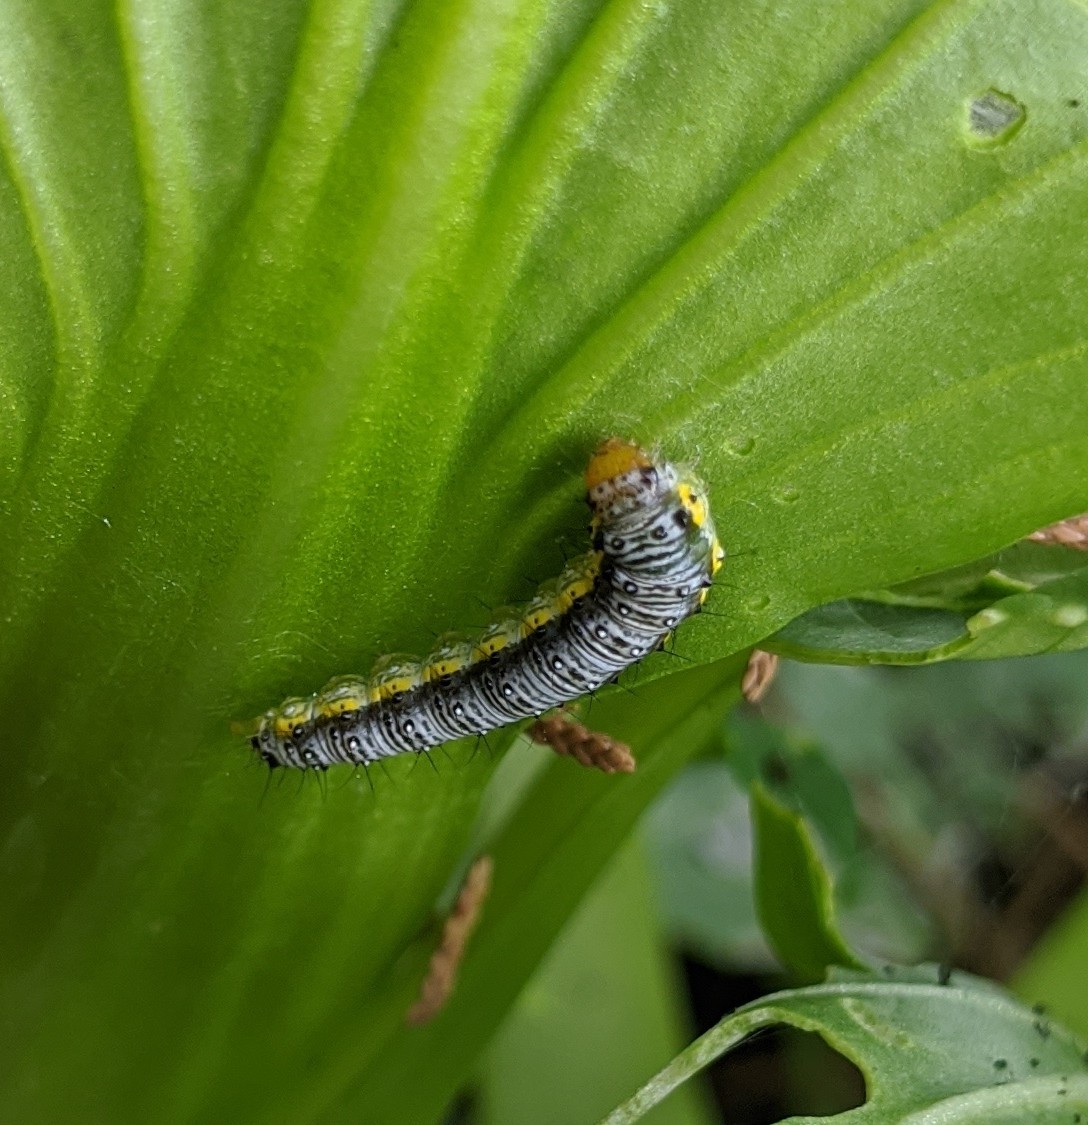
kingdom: Animalia
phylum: Arthropoda
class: Insecta
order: Lepidoptera
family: Crambidae
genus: Evergestis
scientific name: Evergestis rimosalis
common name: Cross-striped cabbageworm moth
